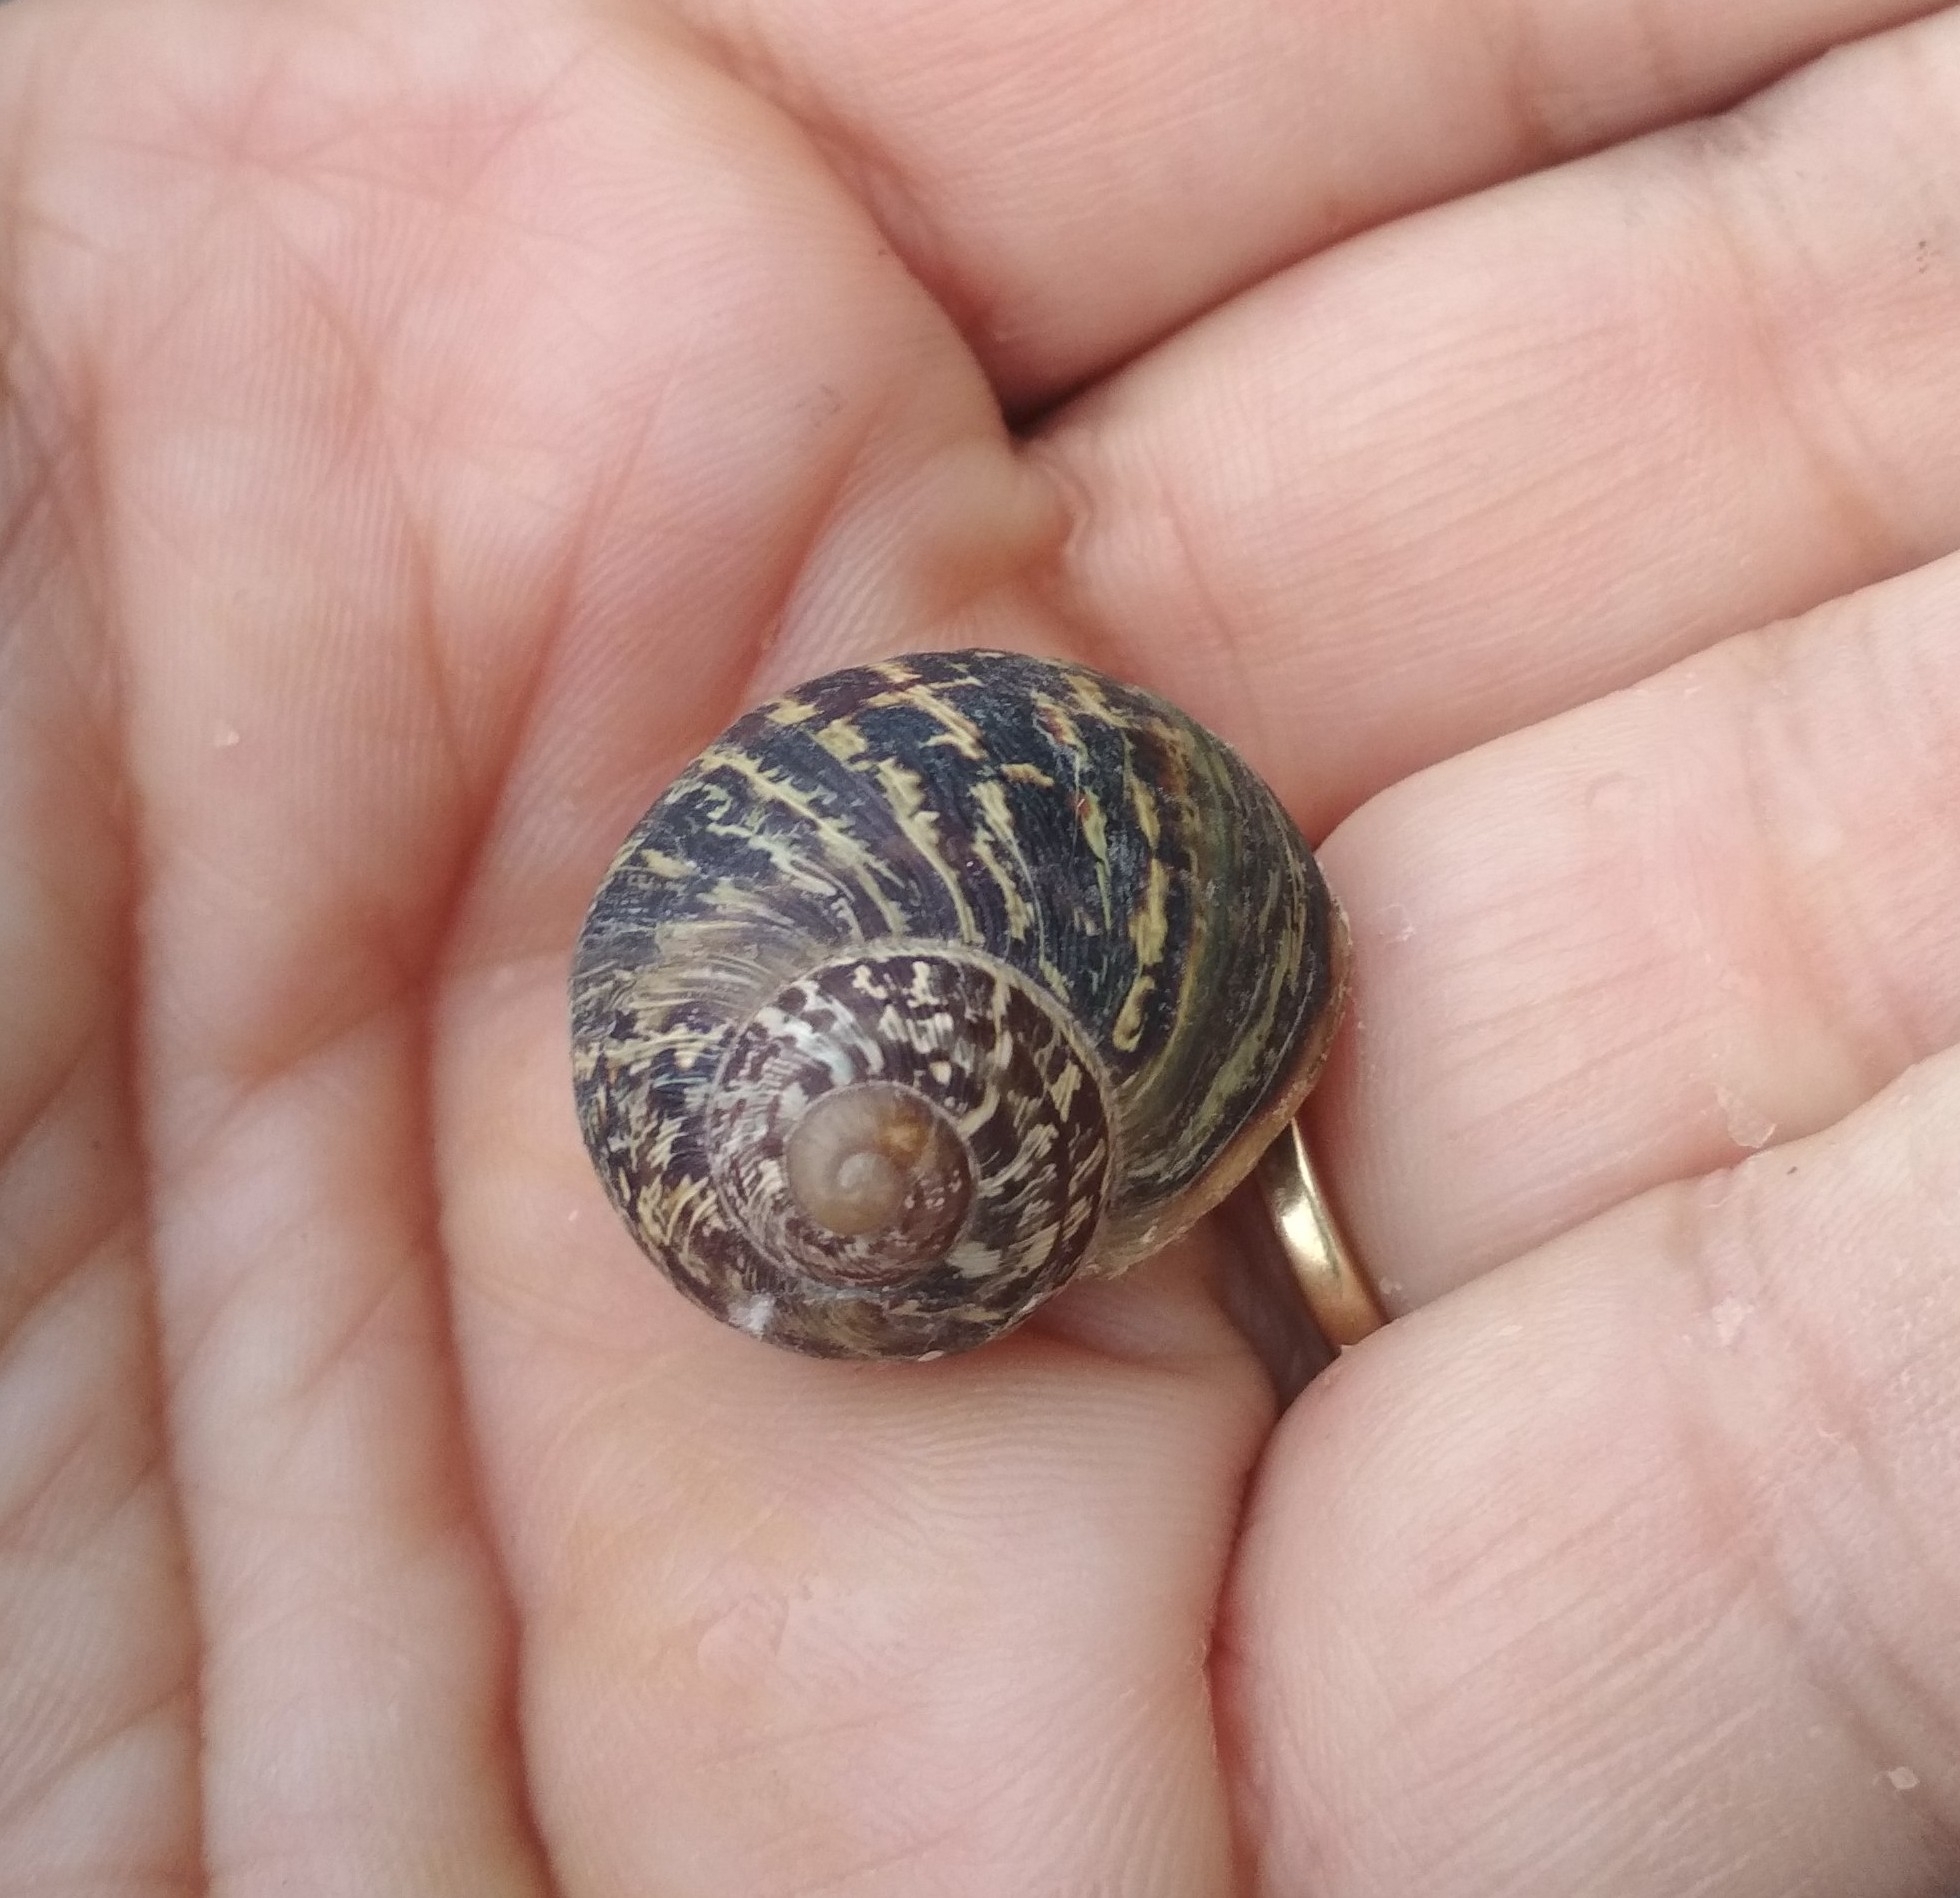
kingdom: Animalia
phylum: Mollusca
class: Gastropoda
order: Stylommatophora
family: Helicidae
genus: Cornu
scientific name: Cornu aspersum
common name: Brown garden snail
